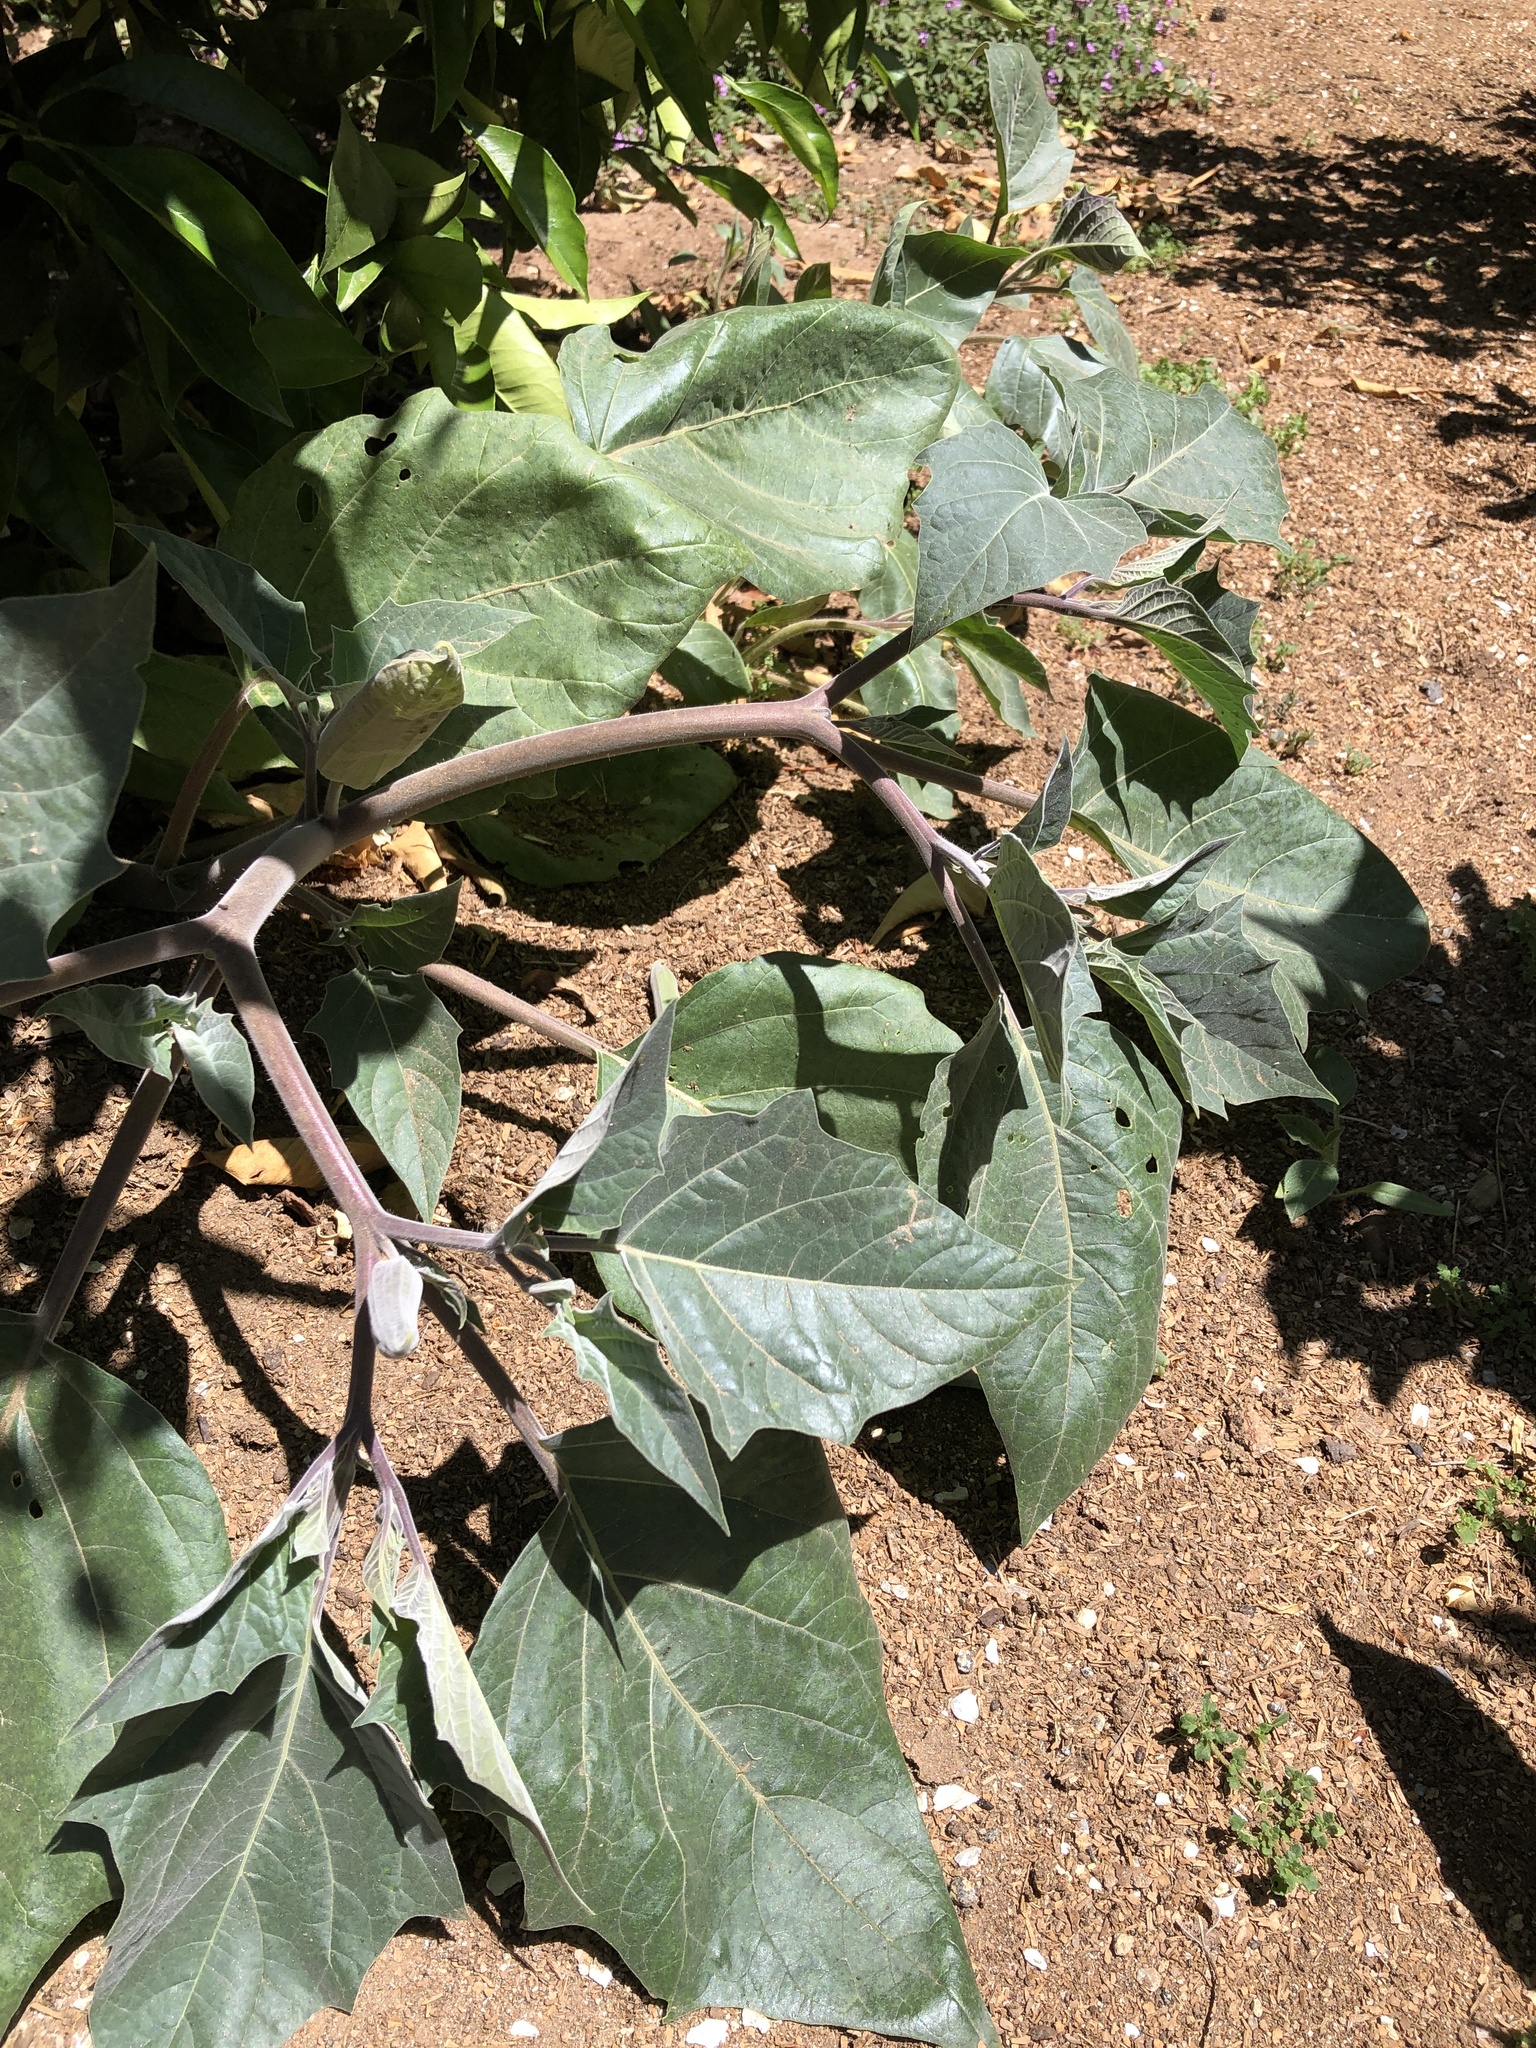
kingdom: Plantae
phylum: Tracheophyta
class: Magnoliopsida
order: Solanales
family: Solanaceae
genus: Datura
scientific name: Datura wrightii
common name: Sacred thorn-apple
